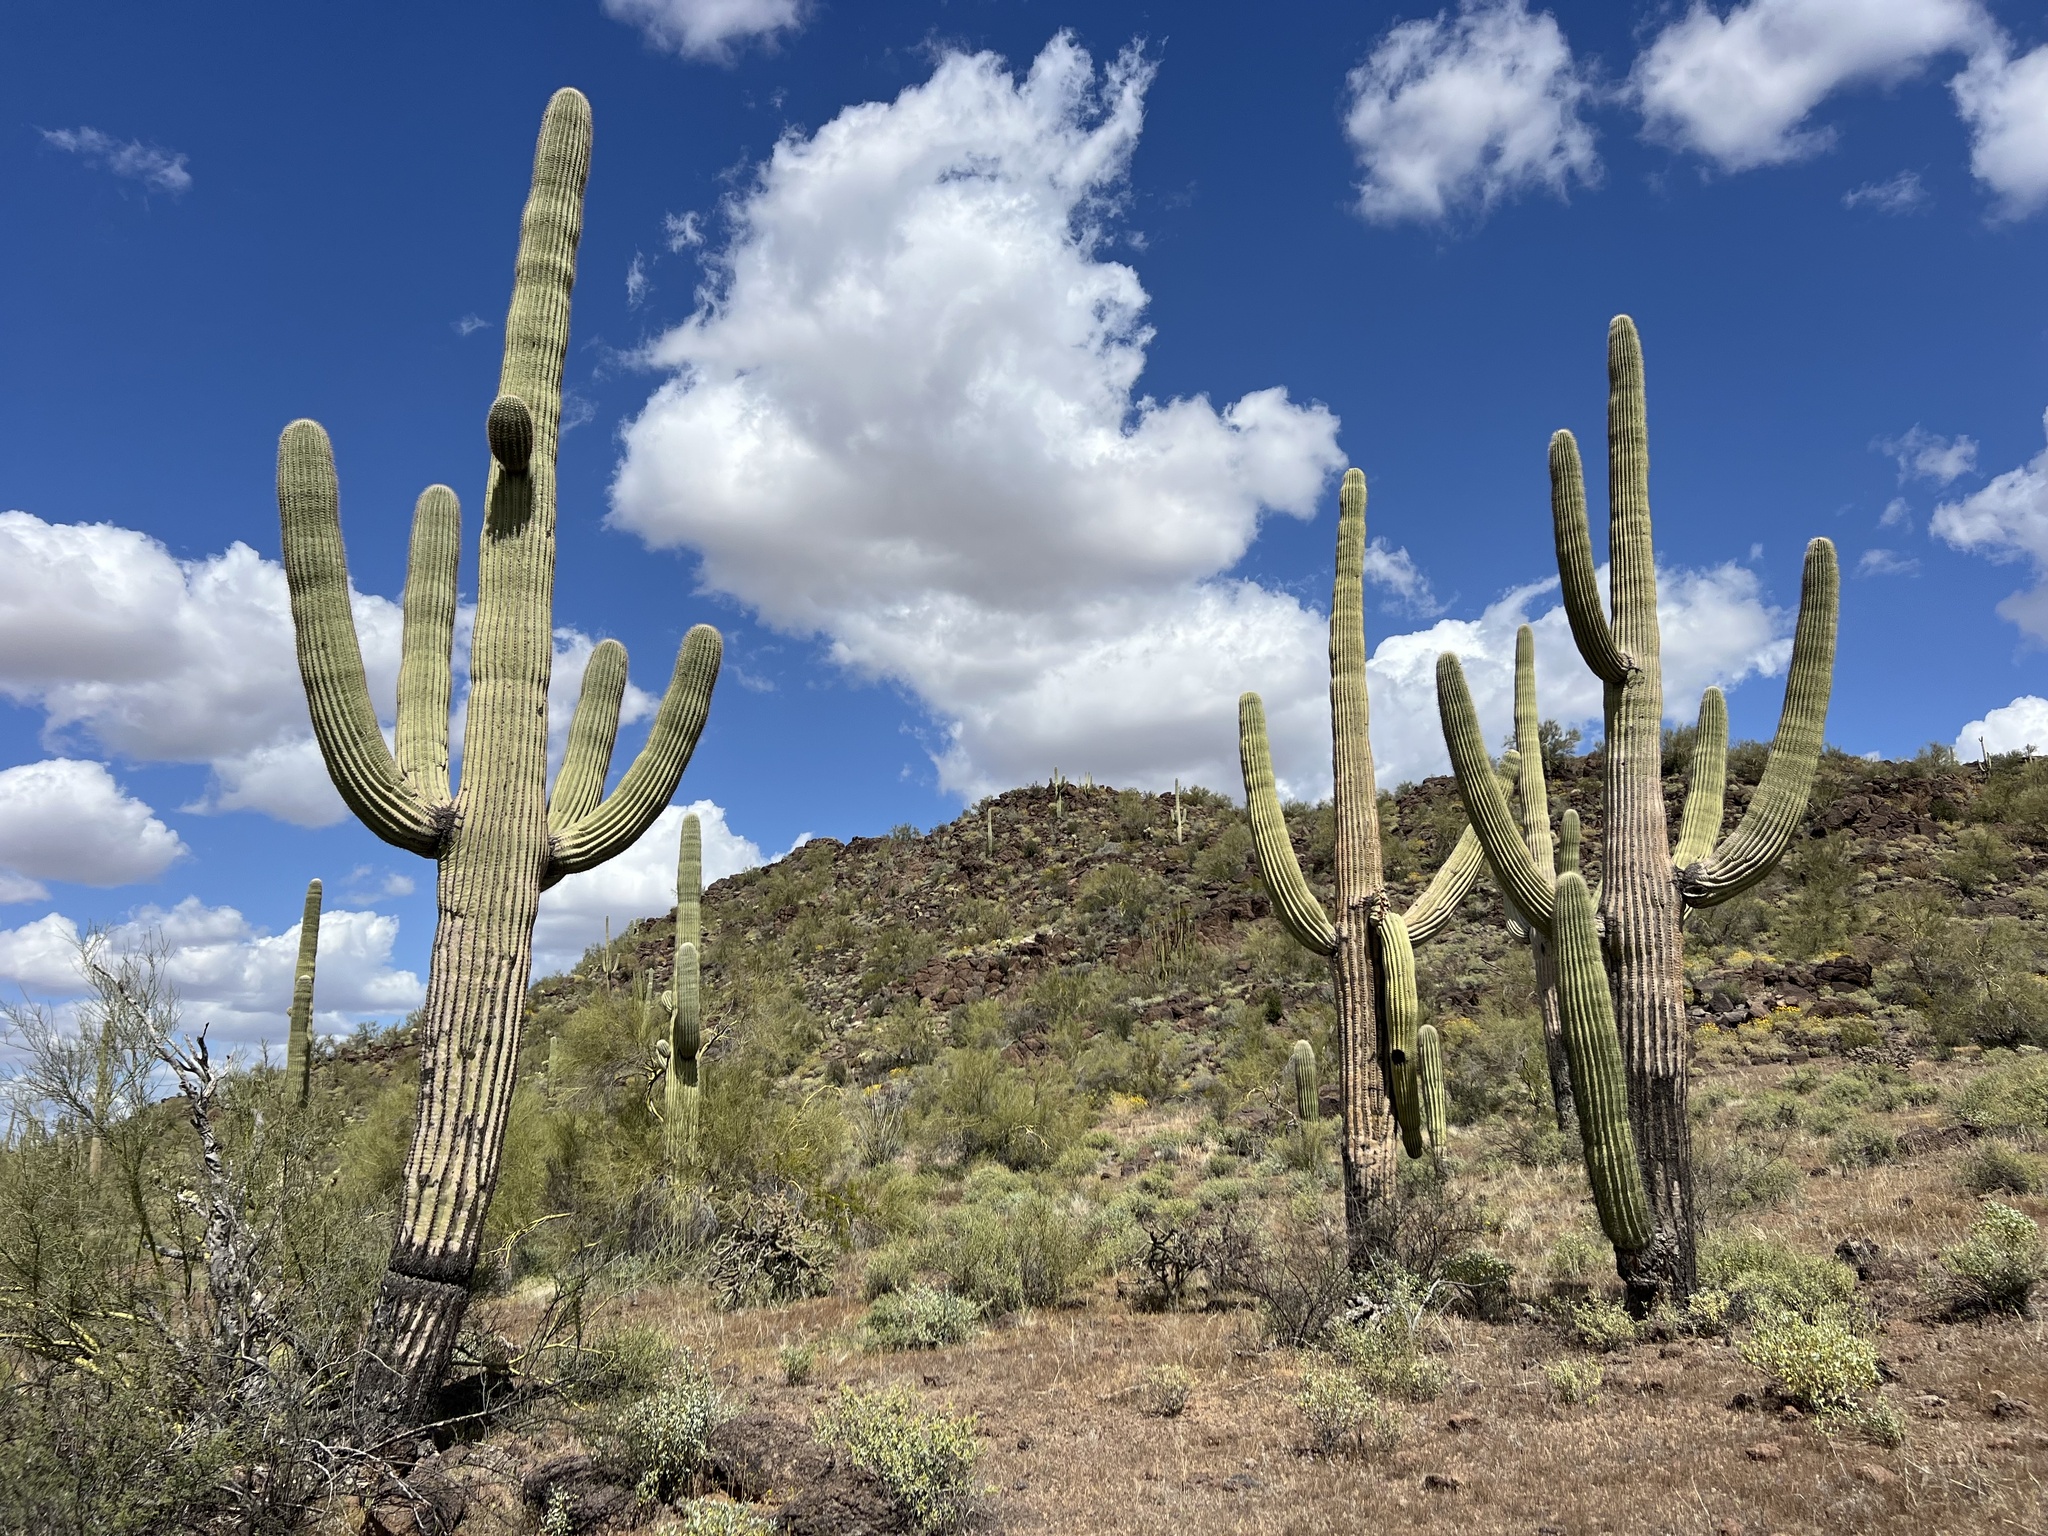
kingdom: Plantae
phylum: Tracheophyta
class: Magnoliopsida
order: Caryophyllales
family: Cactaceae
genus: Carnegiea
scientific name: Carnegiea gigantea
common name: Saguaro
